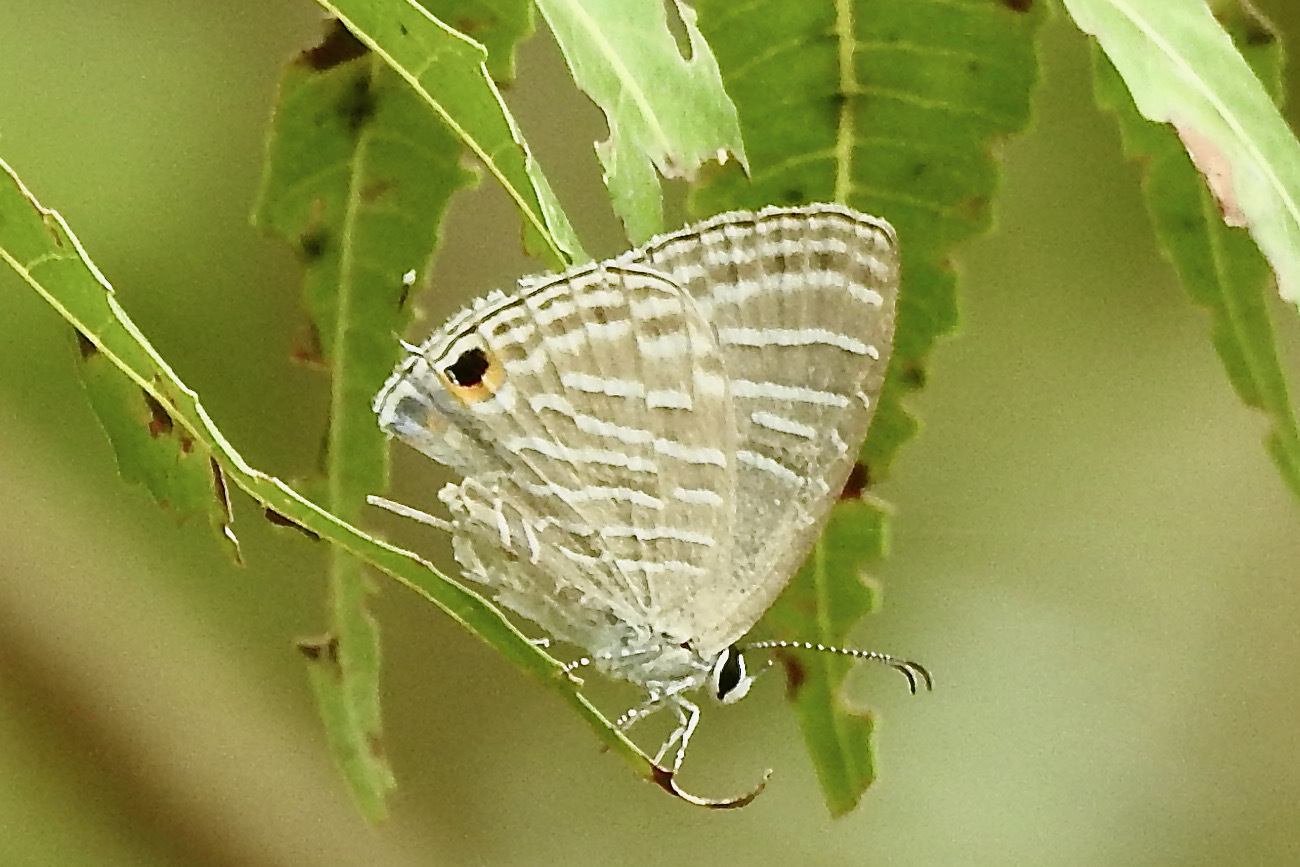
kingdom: Animalia
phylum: Arthropoda
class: Insecta
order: Lepidoptera
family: Lycaenidae
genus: Jamides
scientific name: Jamides celeno
